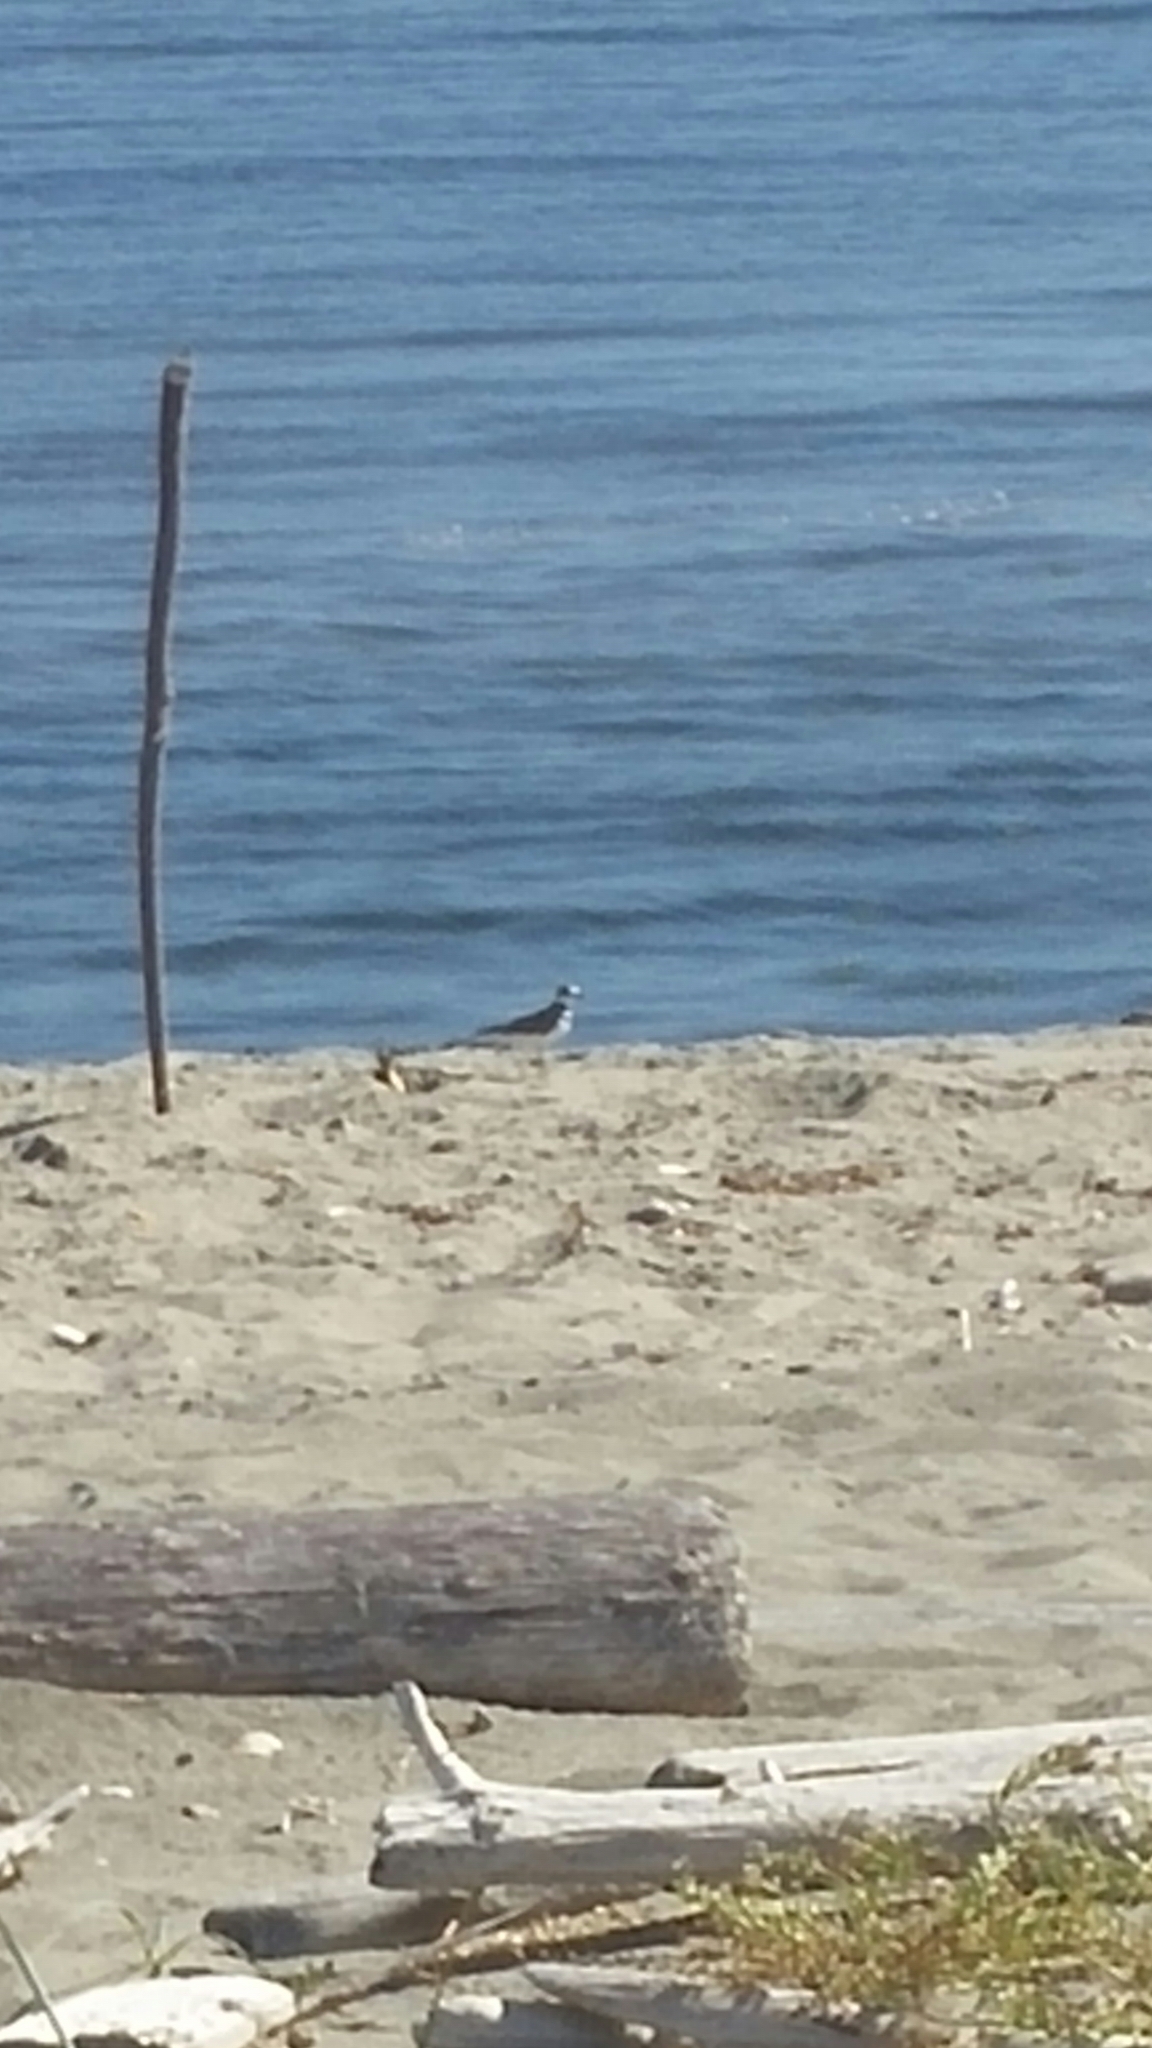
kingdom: Animalia
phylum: Chordata
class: Aves
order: Charadriiformes
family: Charadriidae
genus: Charadrius
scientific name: Charadrius vociferus
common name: Killdeer
